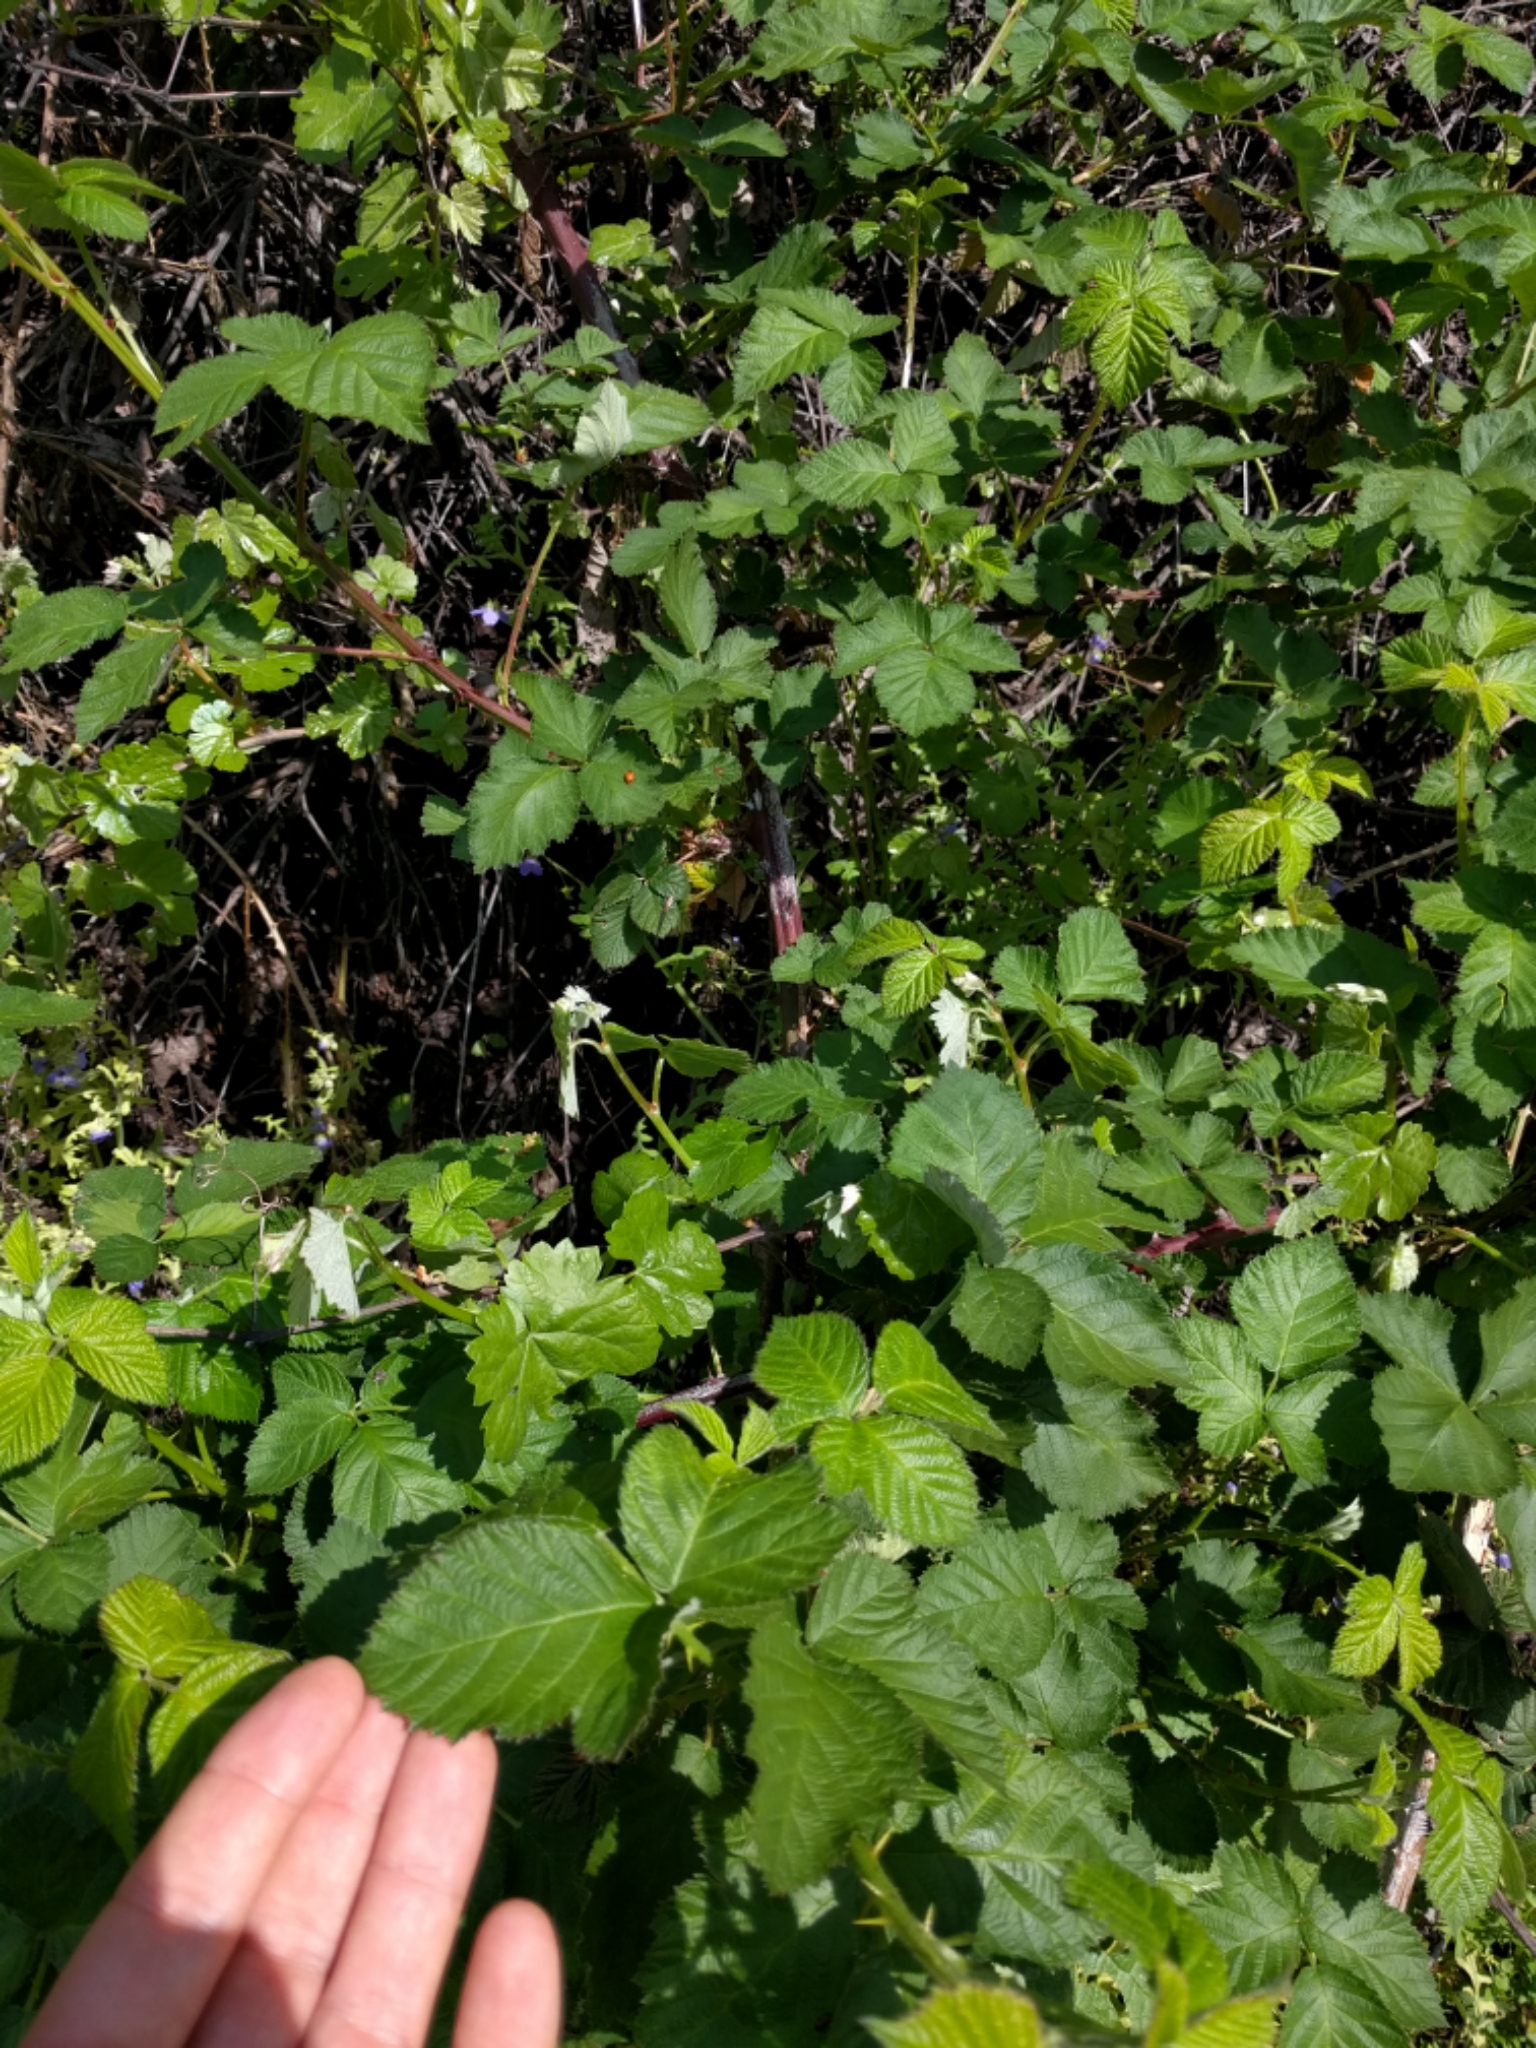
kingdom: Plantae
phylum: Tracheophyta
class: Magnoliopsida
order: Rosales
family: Rosaceae
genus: Rubus
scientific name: Rubus armeniacus
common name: Himalayan blackberry
